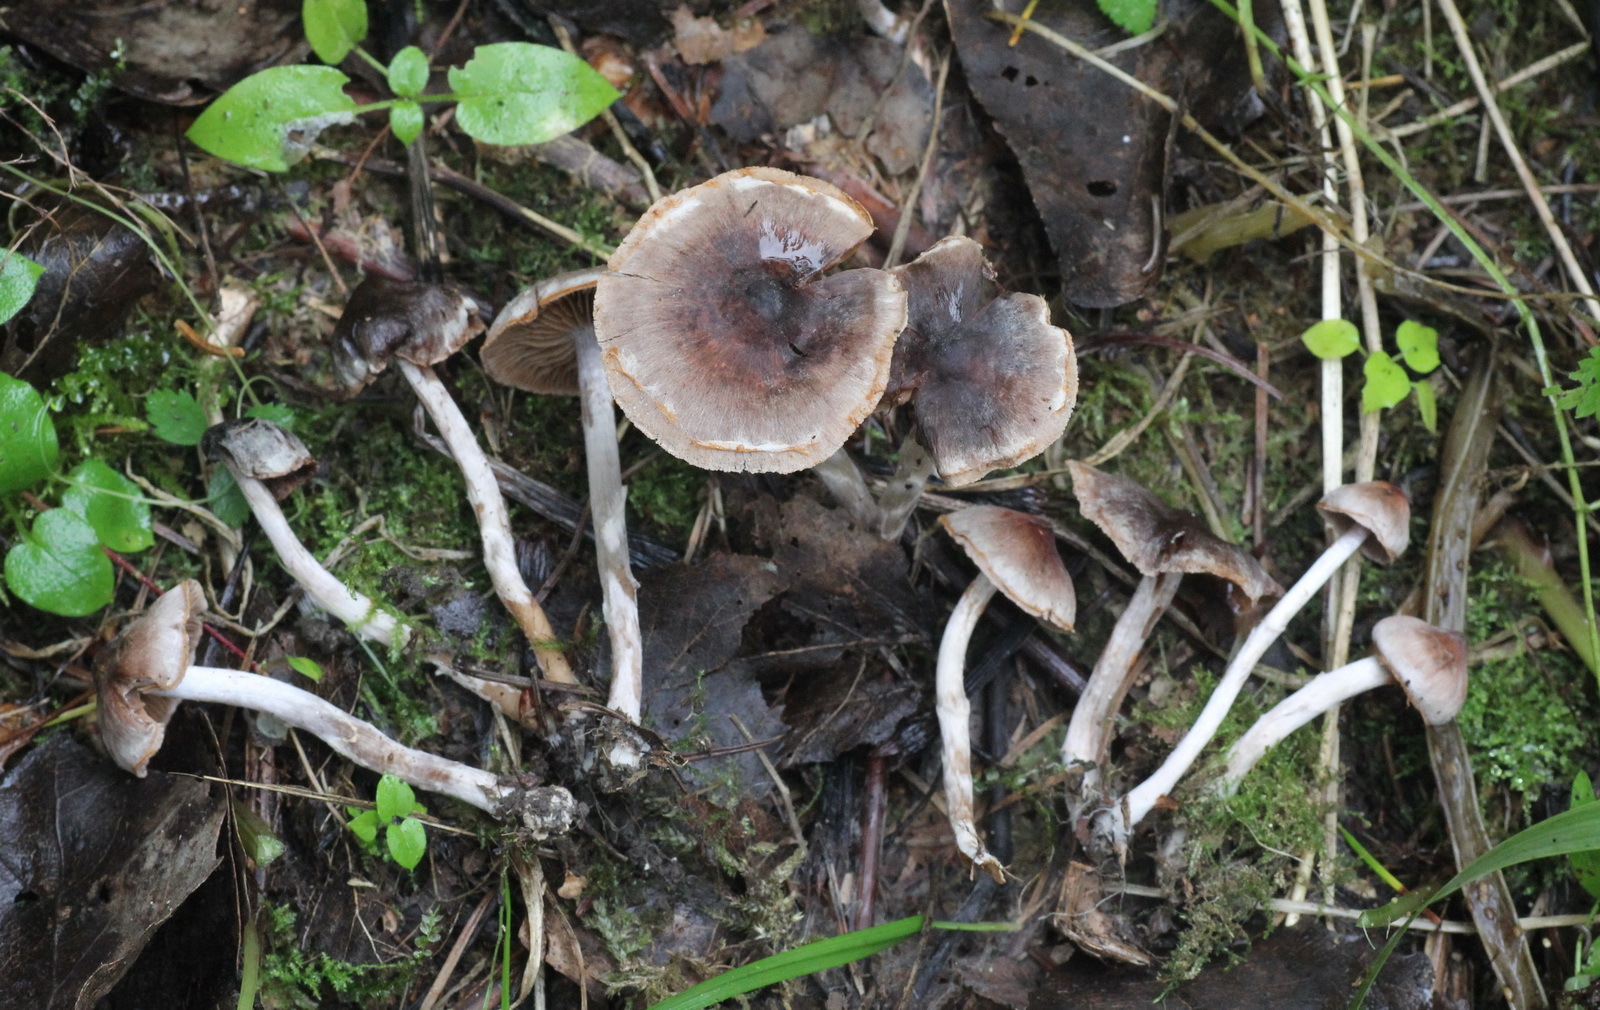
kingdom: Fungi
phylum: Basidiomycota
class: Agaricomycetes
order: Agaricales
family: Cortinariaceae
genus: Cortinarius
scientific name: Cortinarius decipiens
